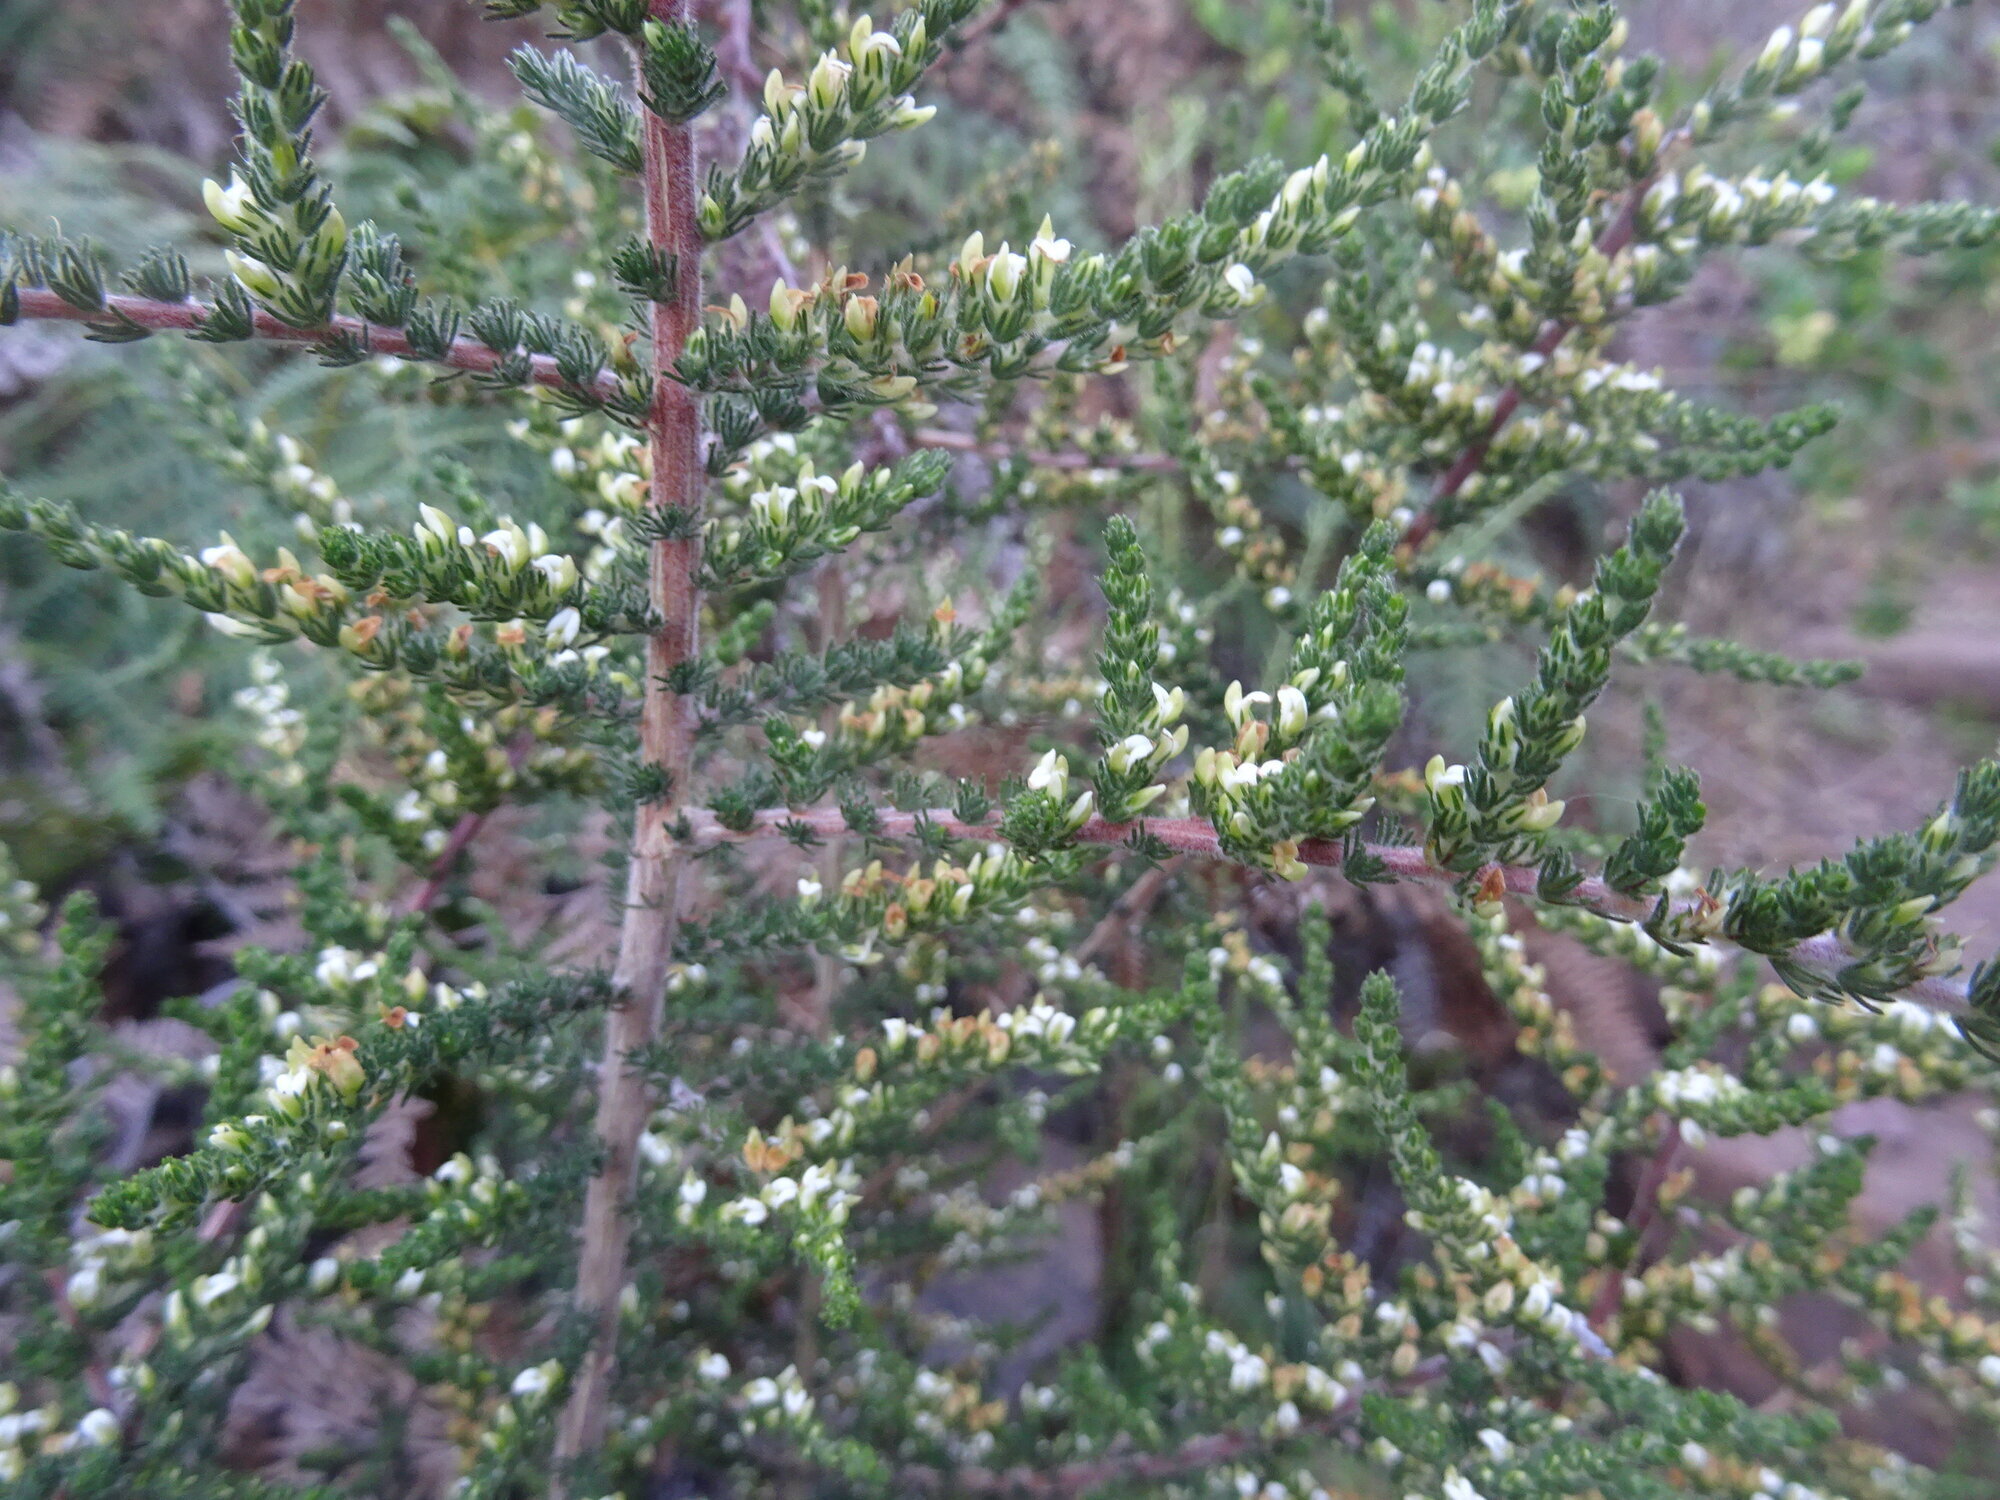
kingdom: Plantae
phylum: Tracheophyta
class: Magnoliopsida
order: Fabales
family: Fabaceae
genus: Aspalathus
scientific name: Aspalathus hispida
